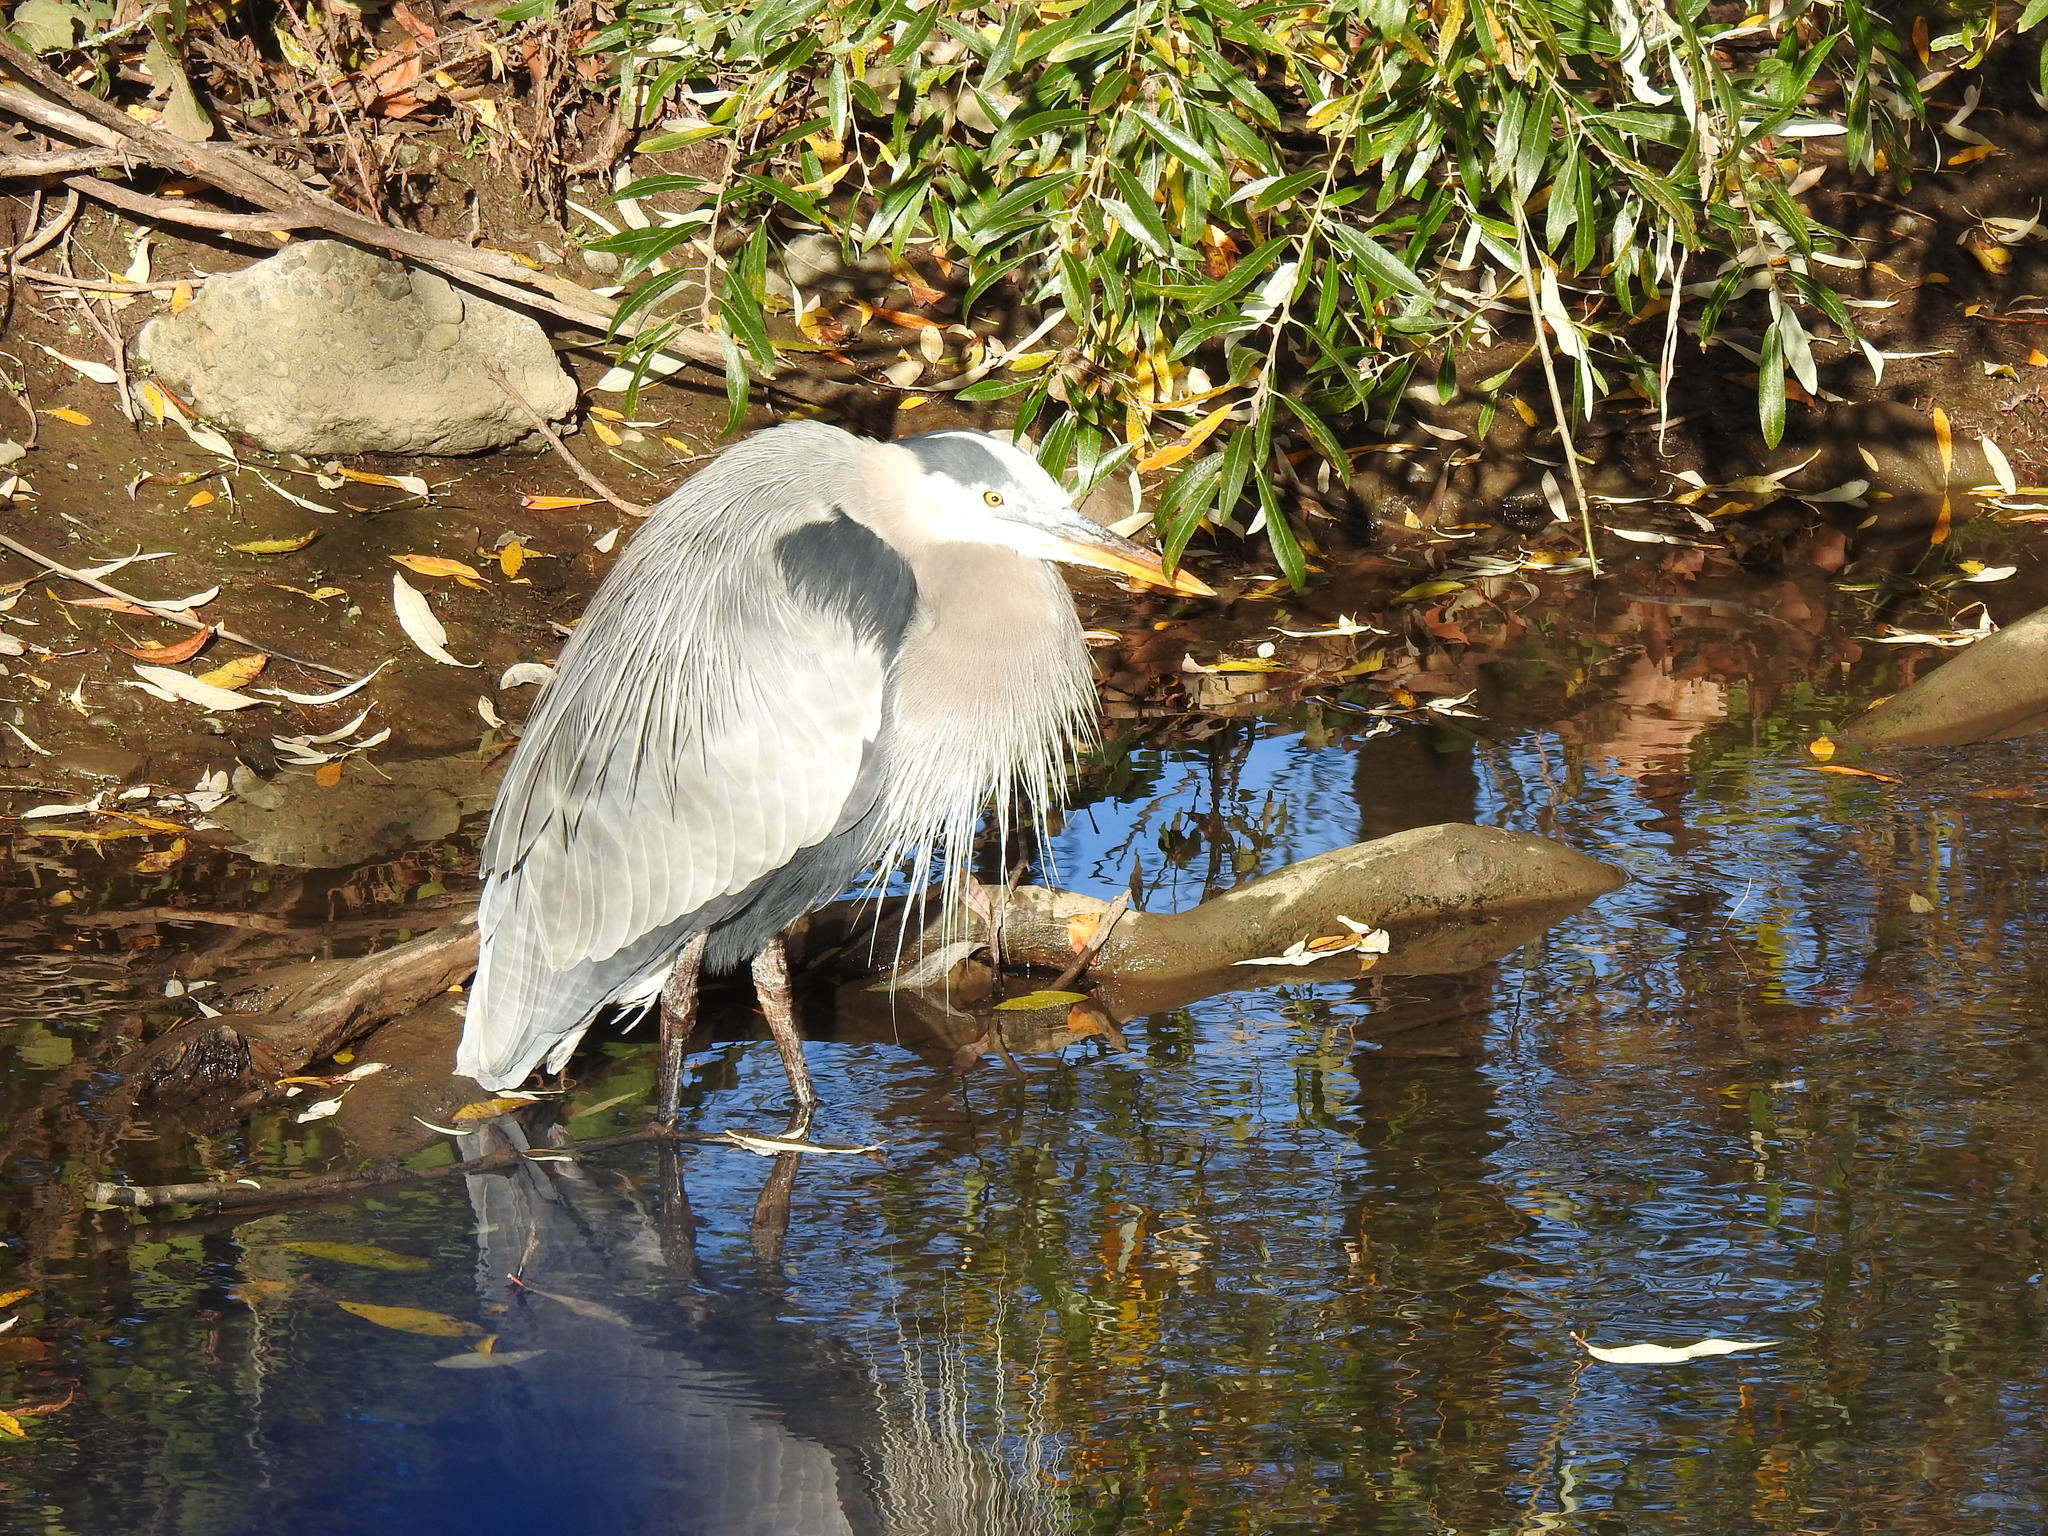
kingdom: Animalia
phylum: Chordata
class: Aves
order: Pelecaniformes
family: Ardeidae
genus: Ardea
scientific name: Ardea herodias
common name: Great blue heron
